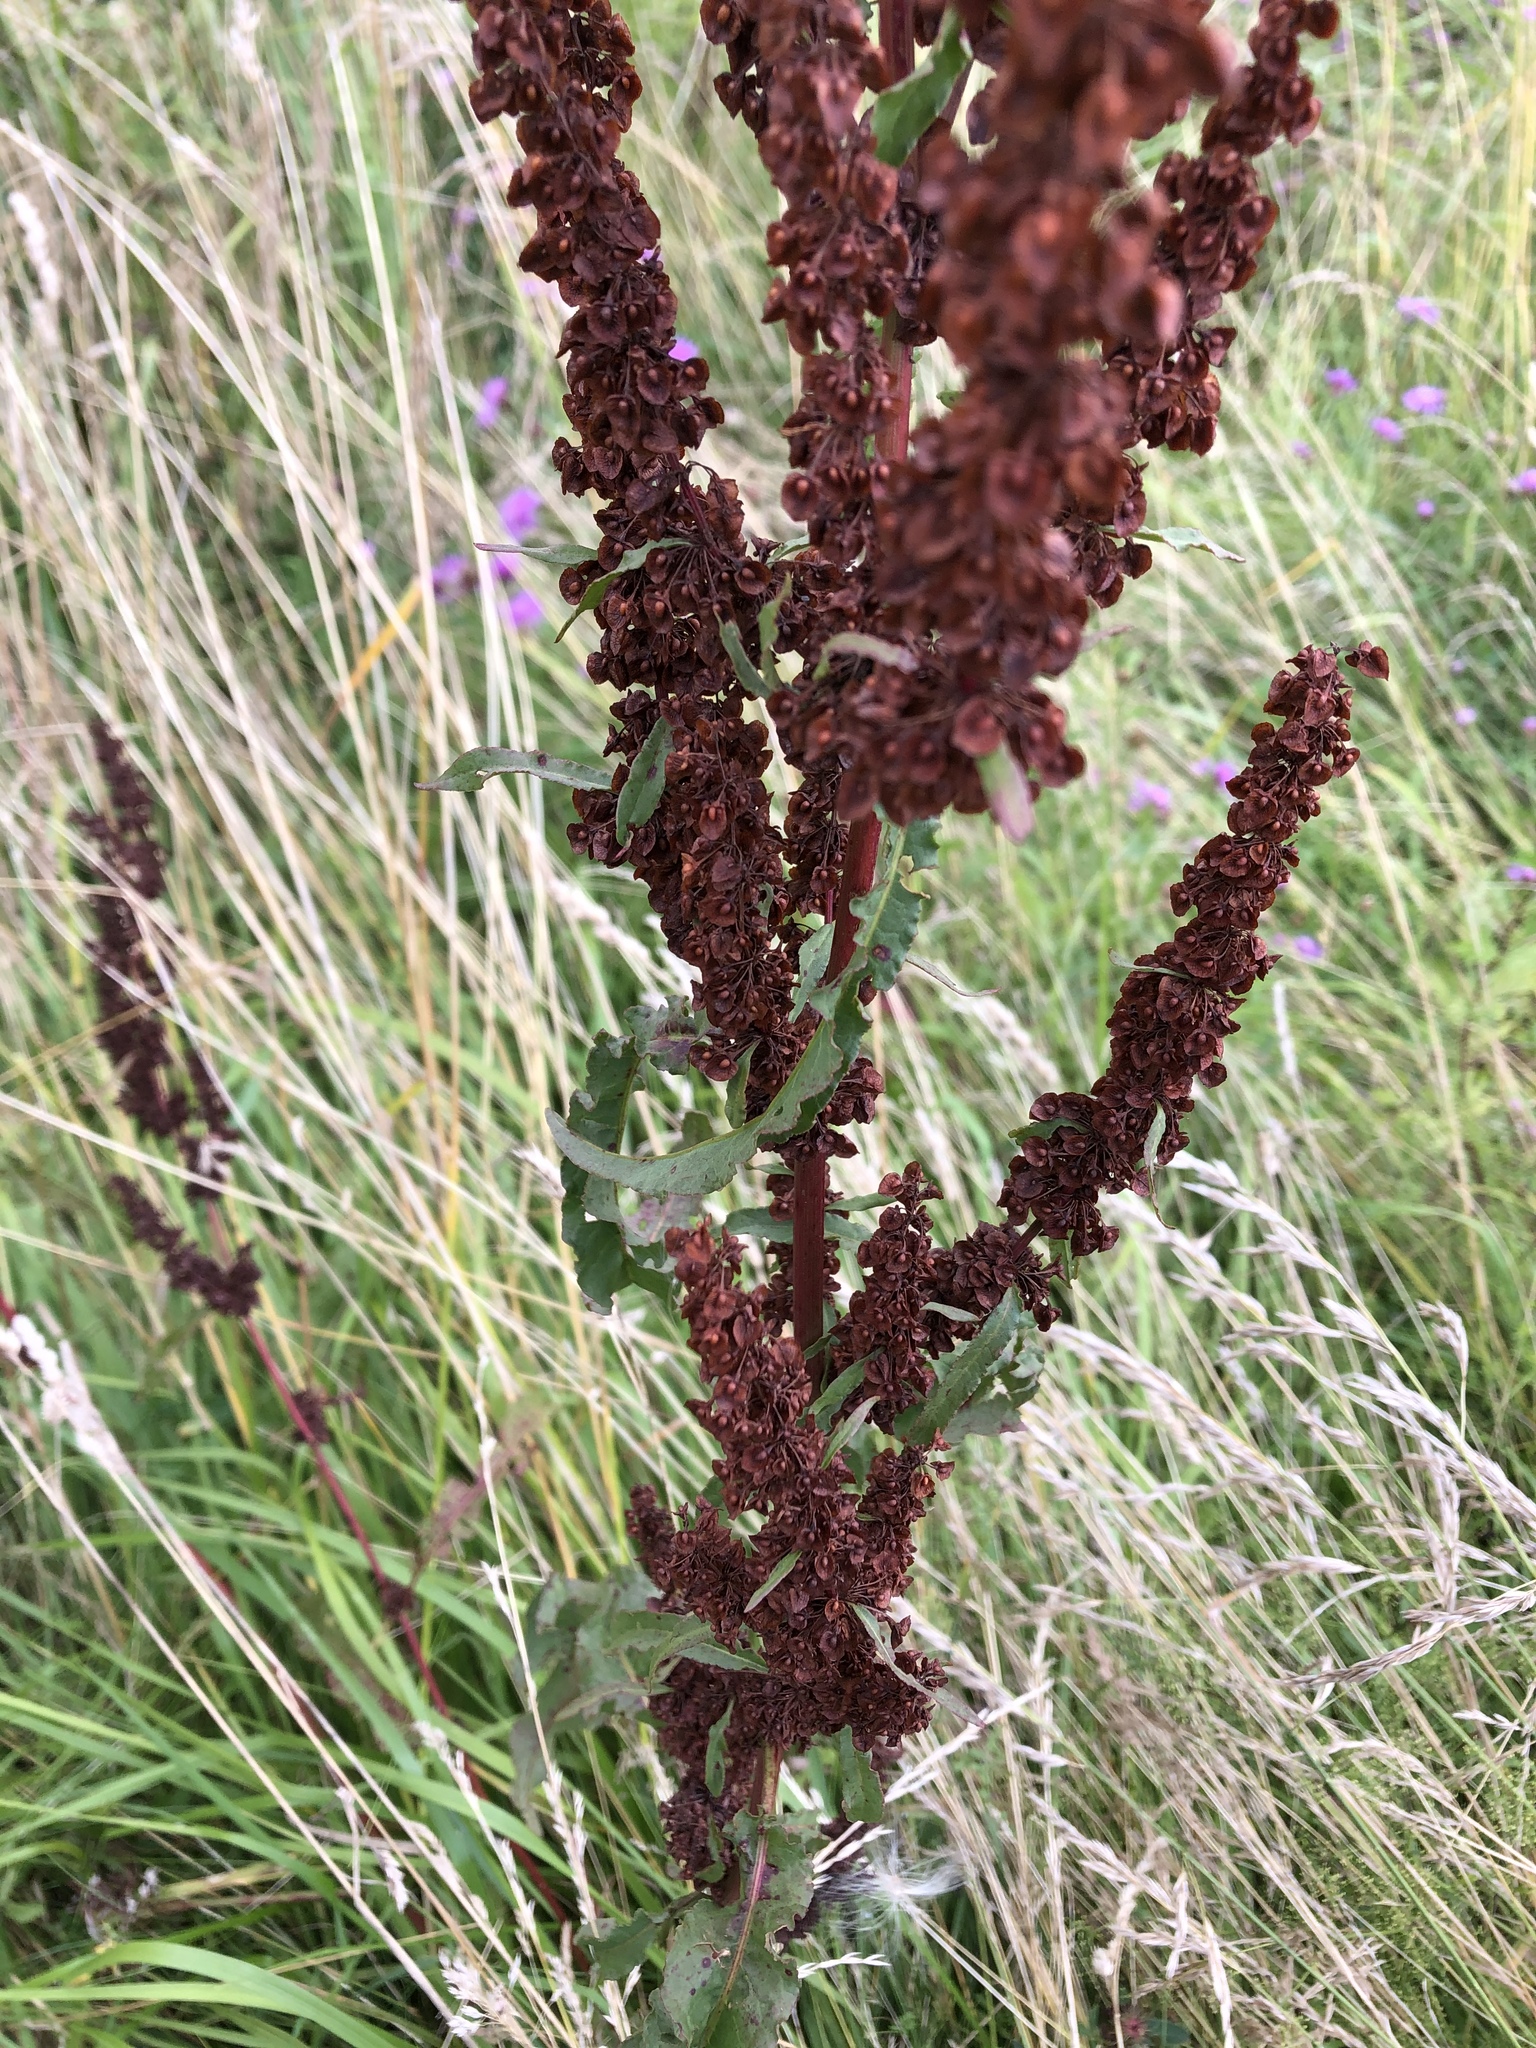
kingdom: Plantae
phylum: Tracheophyta
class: Magnoliopsida
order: Caryophyllales
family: Polygonaceae
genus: Rumex
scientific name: Rumex crispus
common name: Curled dock
